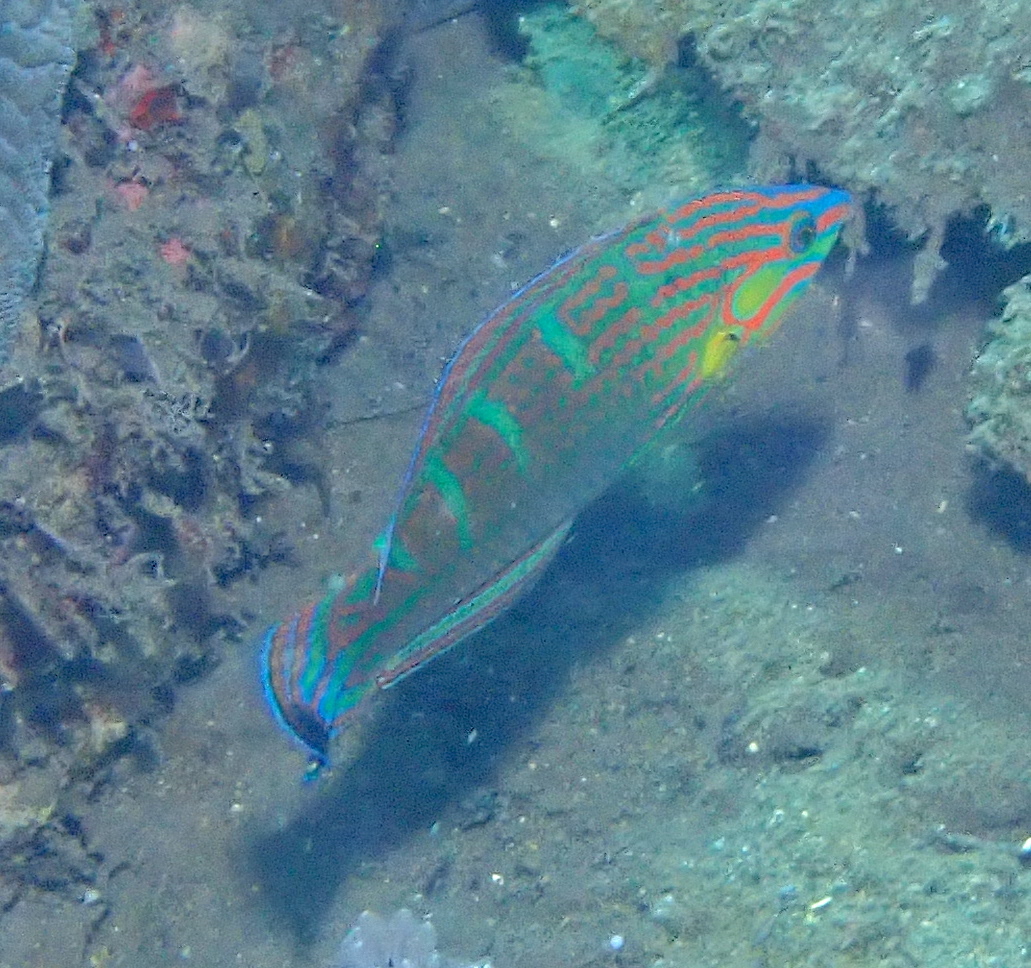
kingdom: Animalia
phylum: Chordata
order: Perciformes
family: Labridae
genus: Halichoeres
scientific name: Halichoeres melanurus
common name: Hoeven's wrasse
